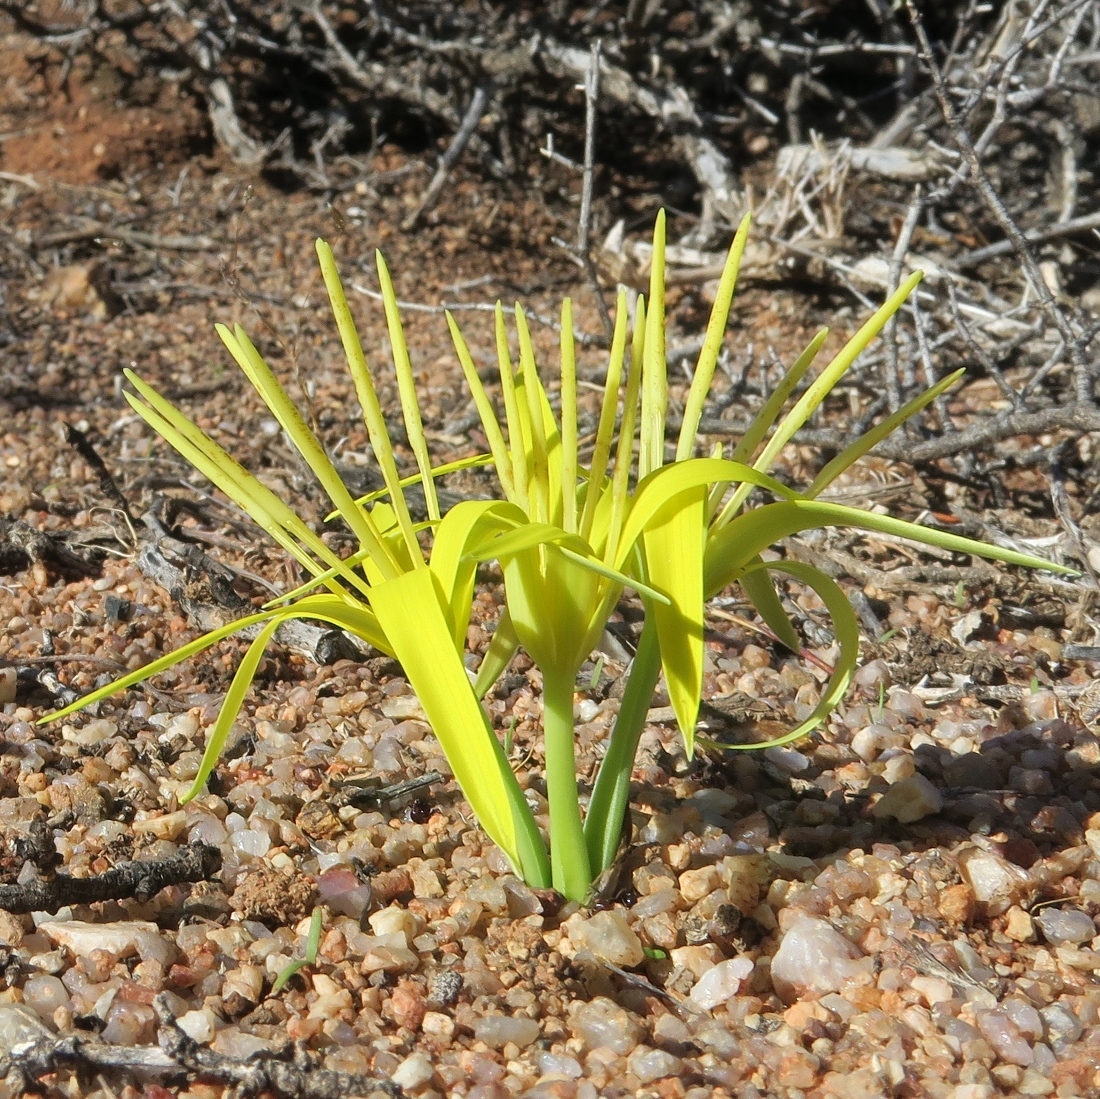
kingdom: Plantae
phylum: Tracheophyta
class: Liliopsida
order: Asparagales
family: Hypoxidaceae
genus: Empodium
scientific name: Empodium flexile
